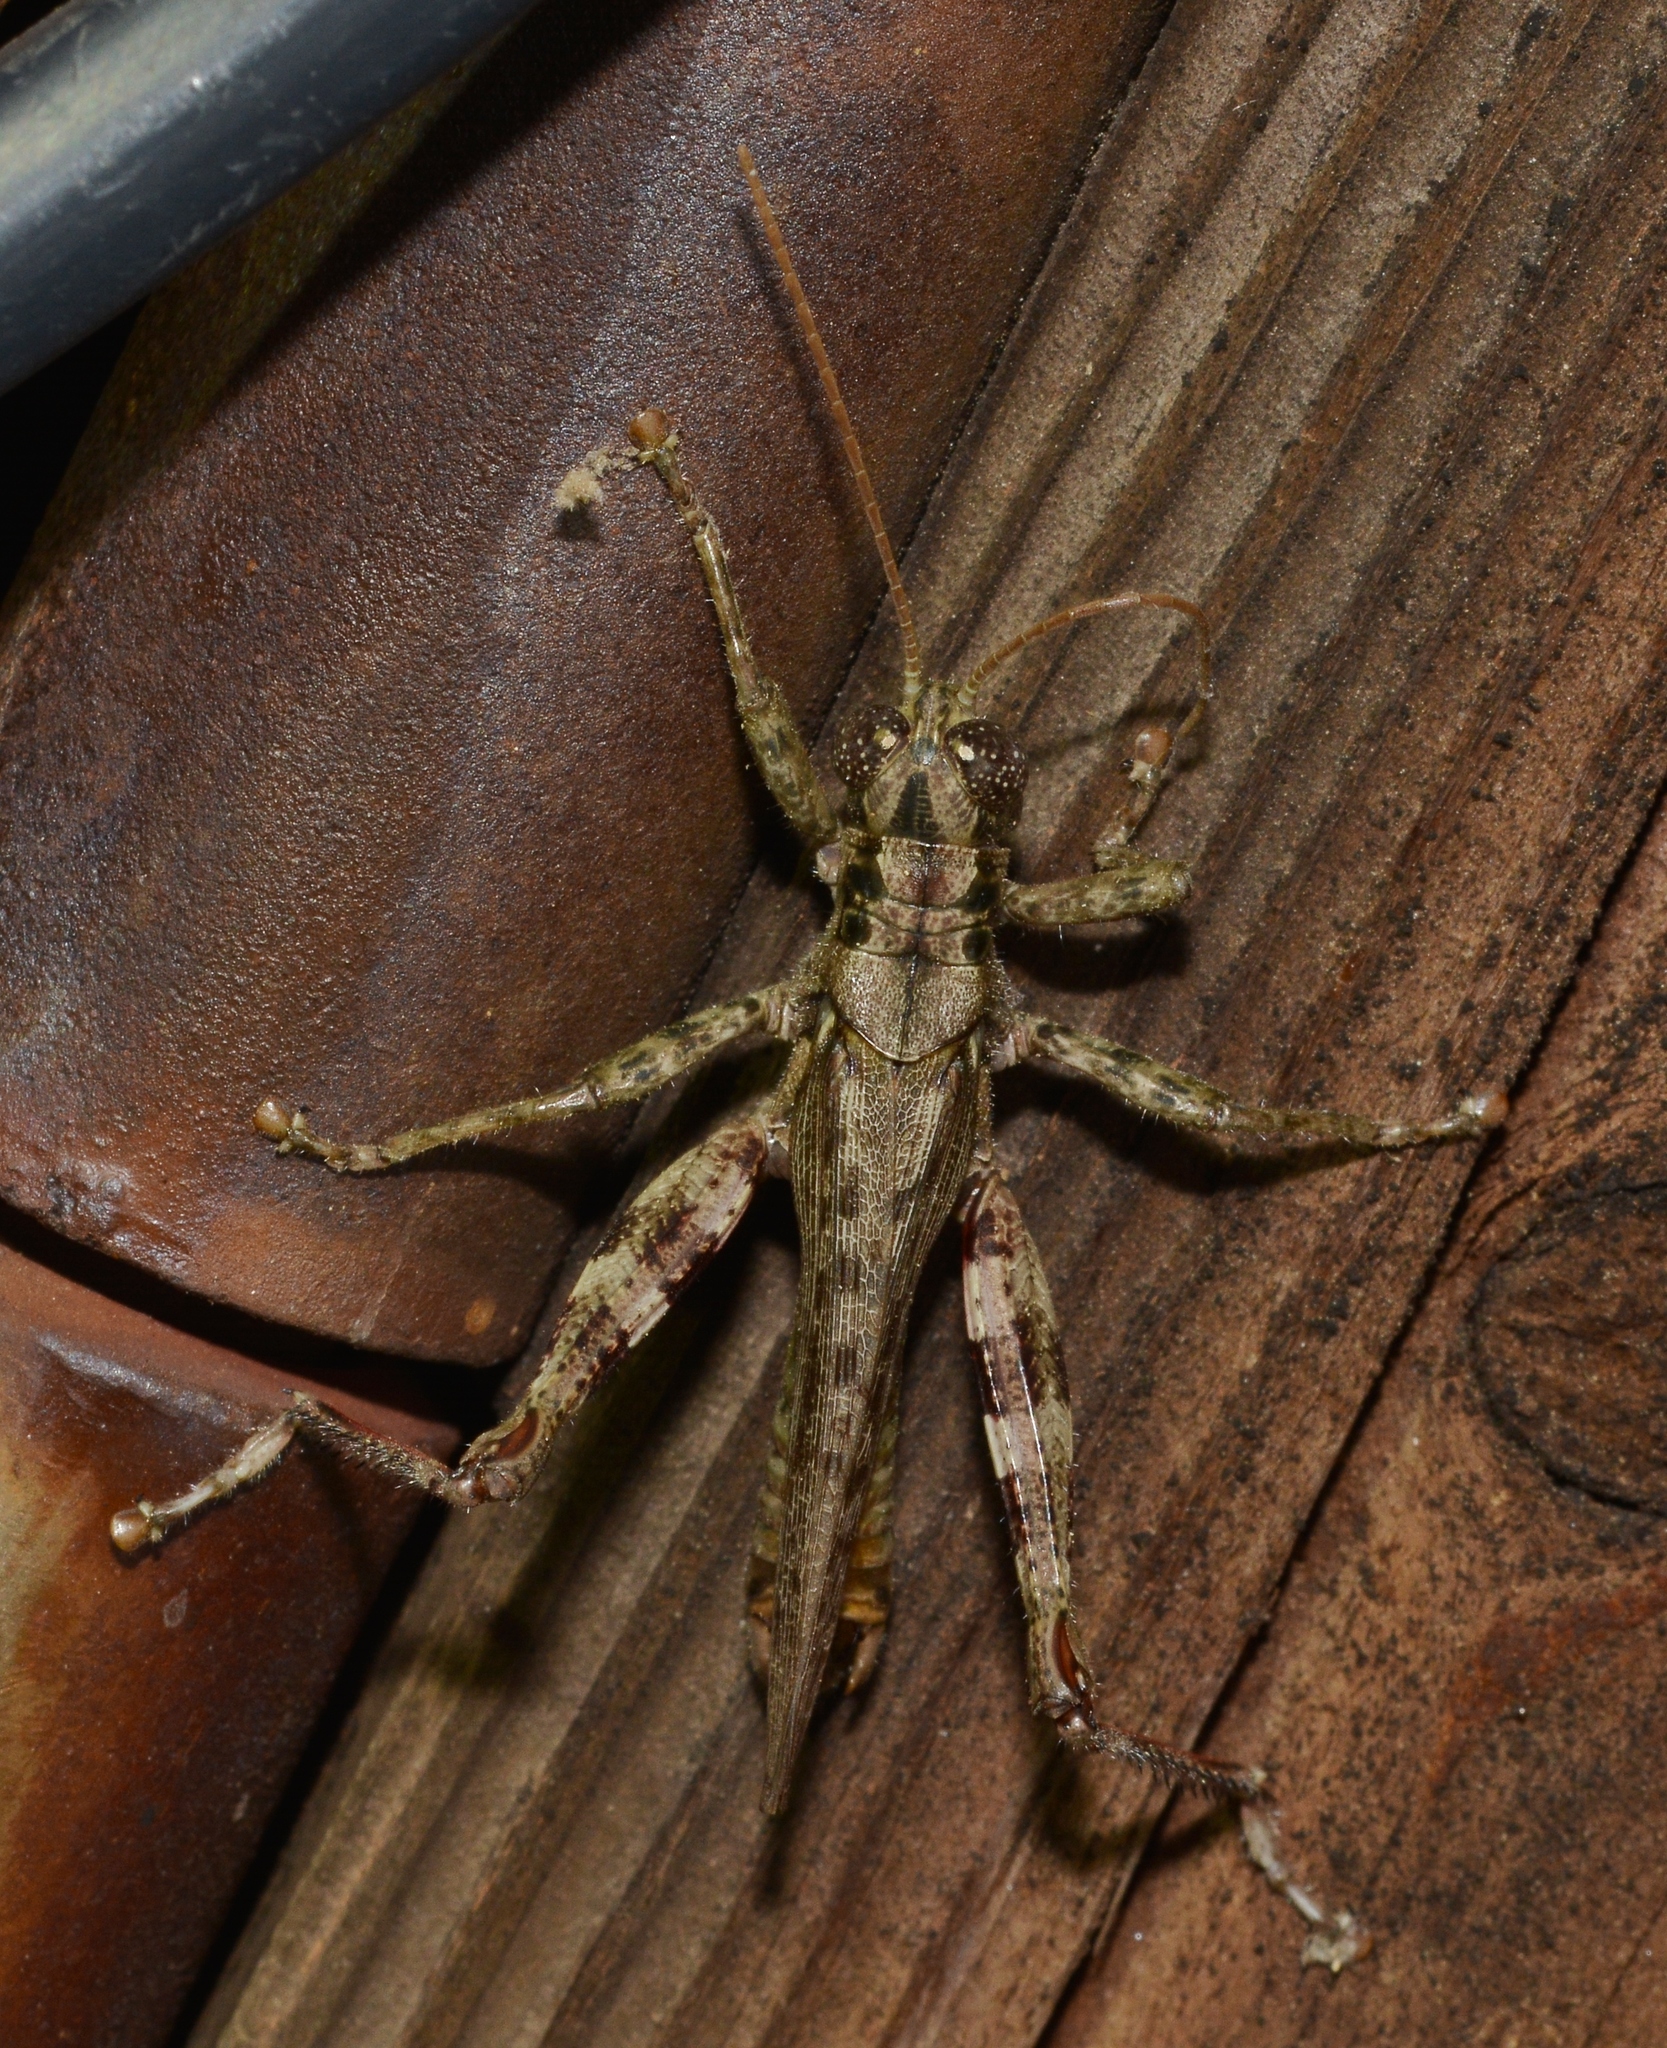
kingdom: Animalia
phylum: Arthropoda
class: Insecta
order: Orthoptera
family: Acrididae
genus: Melanoplus
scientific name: Melanoplus punctulatus
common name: Pine-tree spur-throat grasshopper
